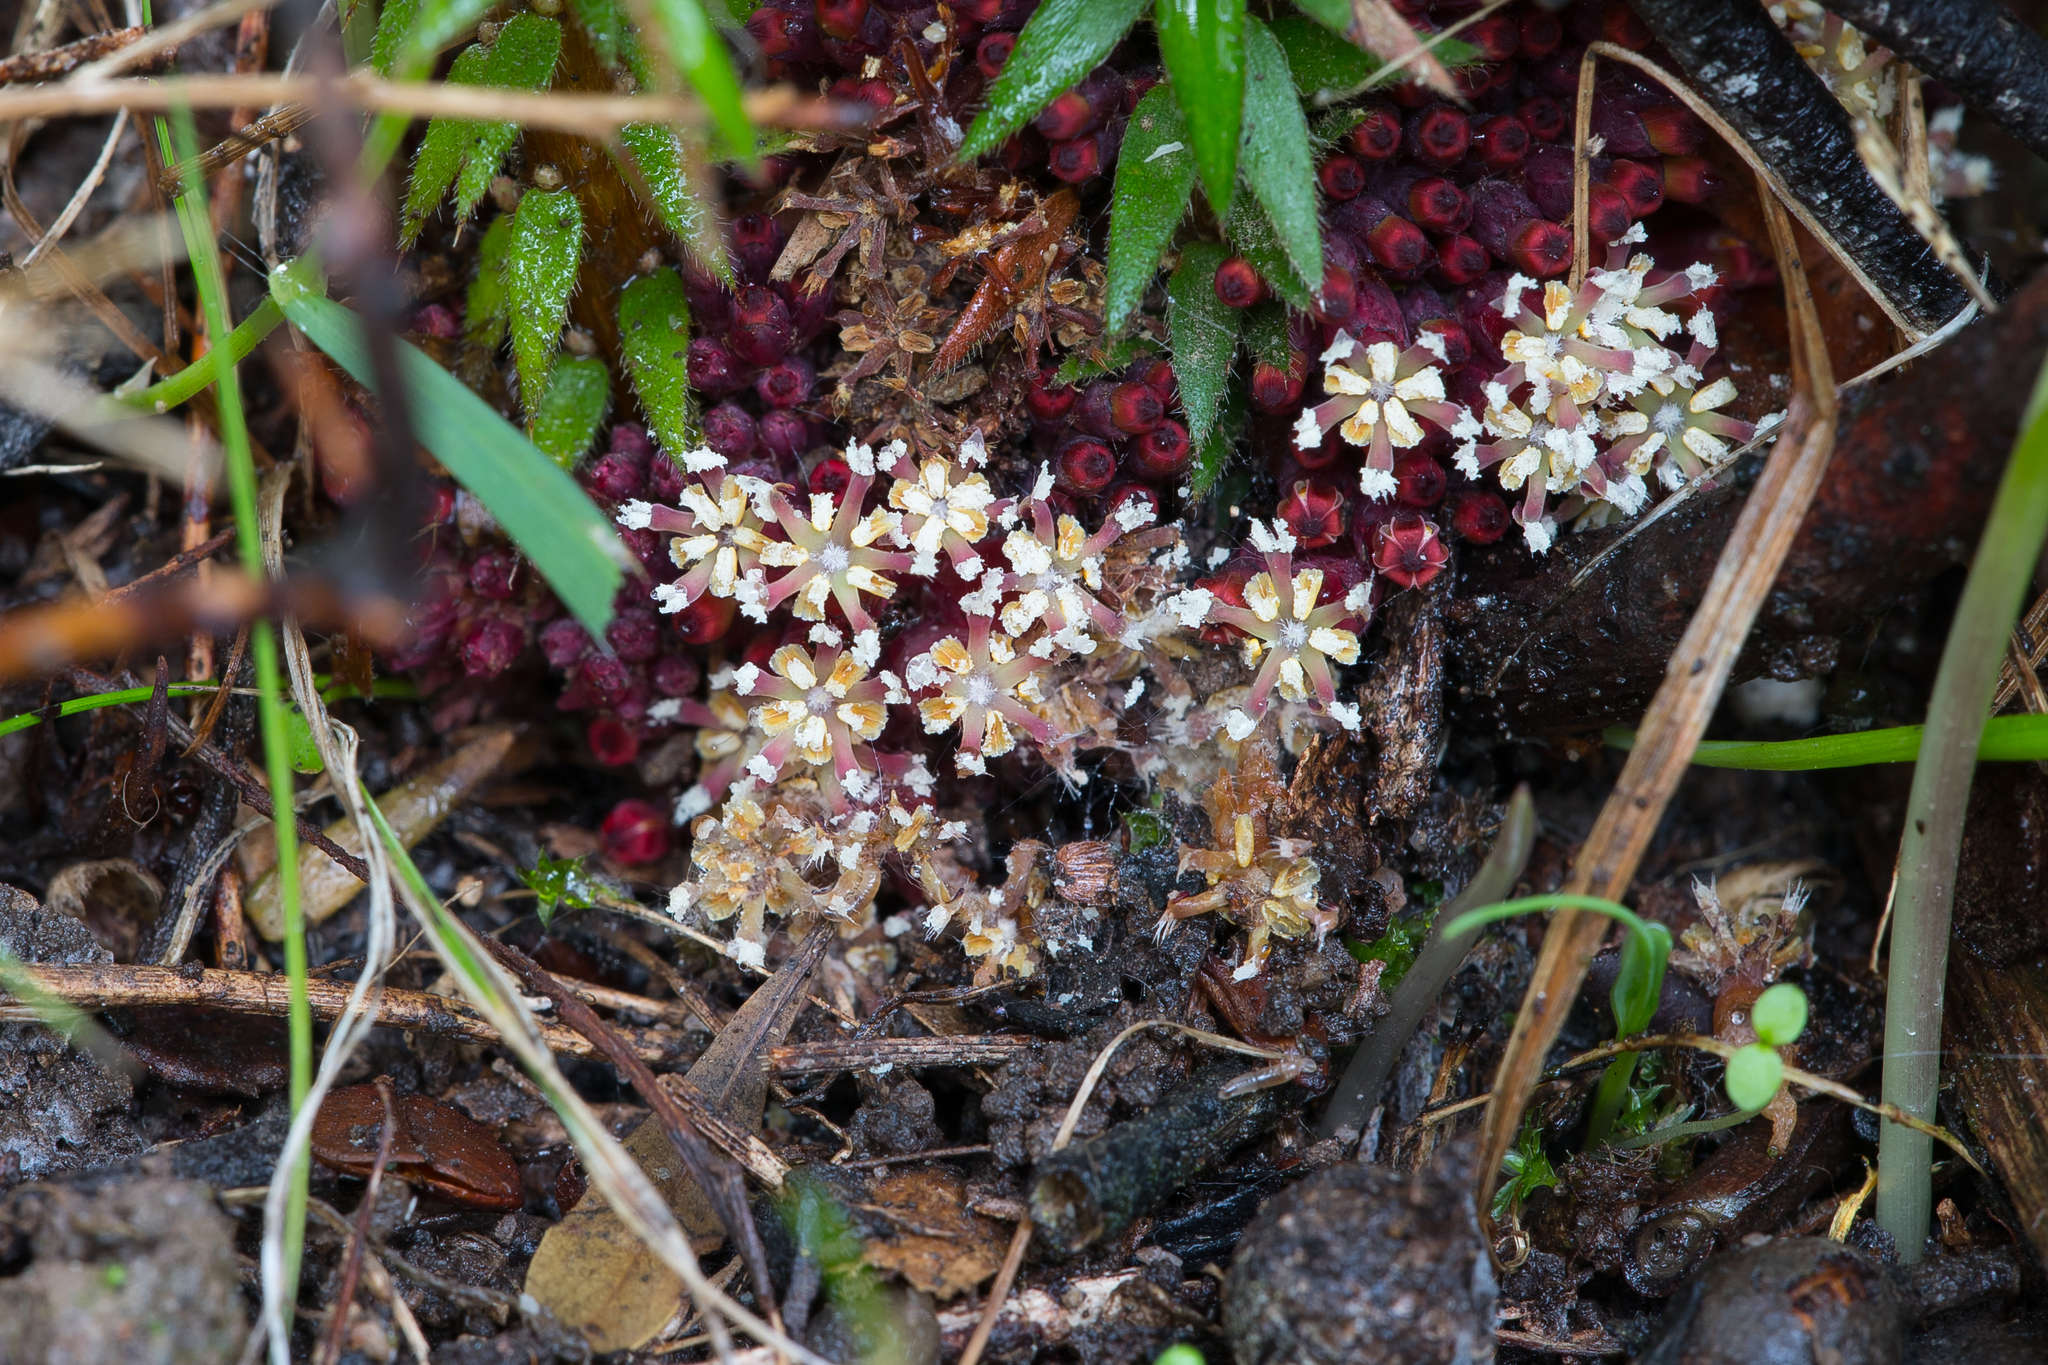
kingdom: Plantae
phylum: Tracheophyta
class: Magnoliopsida
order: Ericales
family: Ericaceae
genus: Acrotriche
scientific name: Acrotriche fasciculiflora
